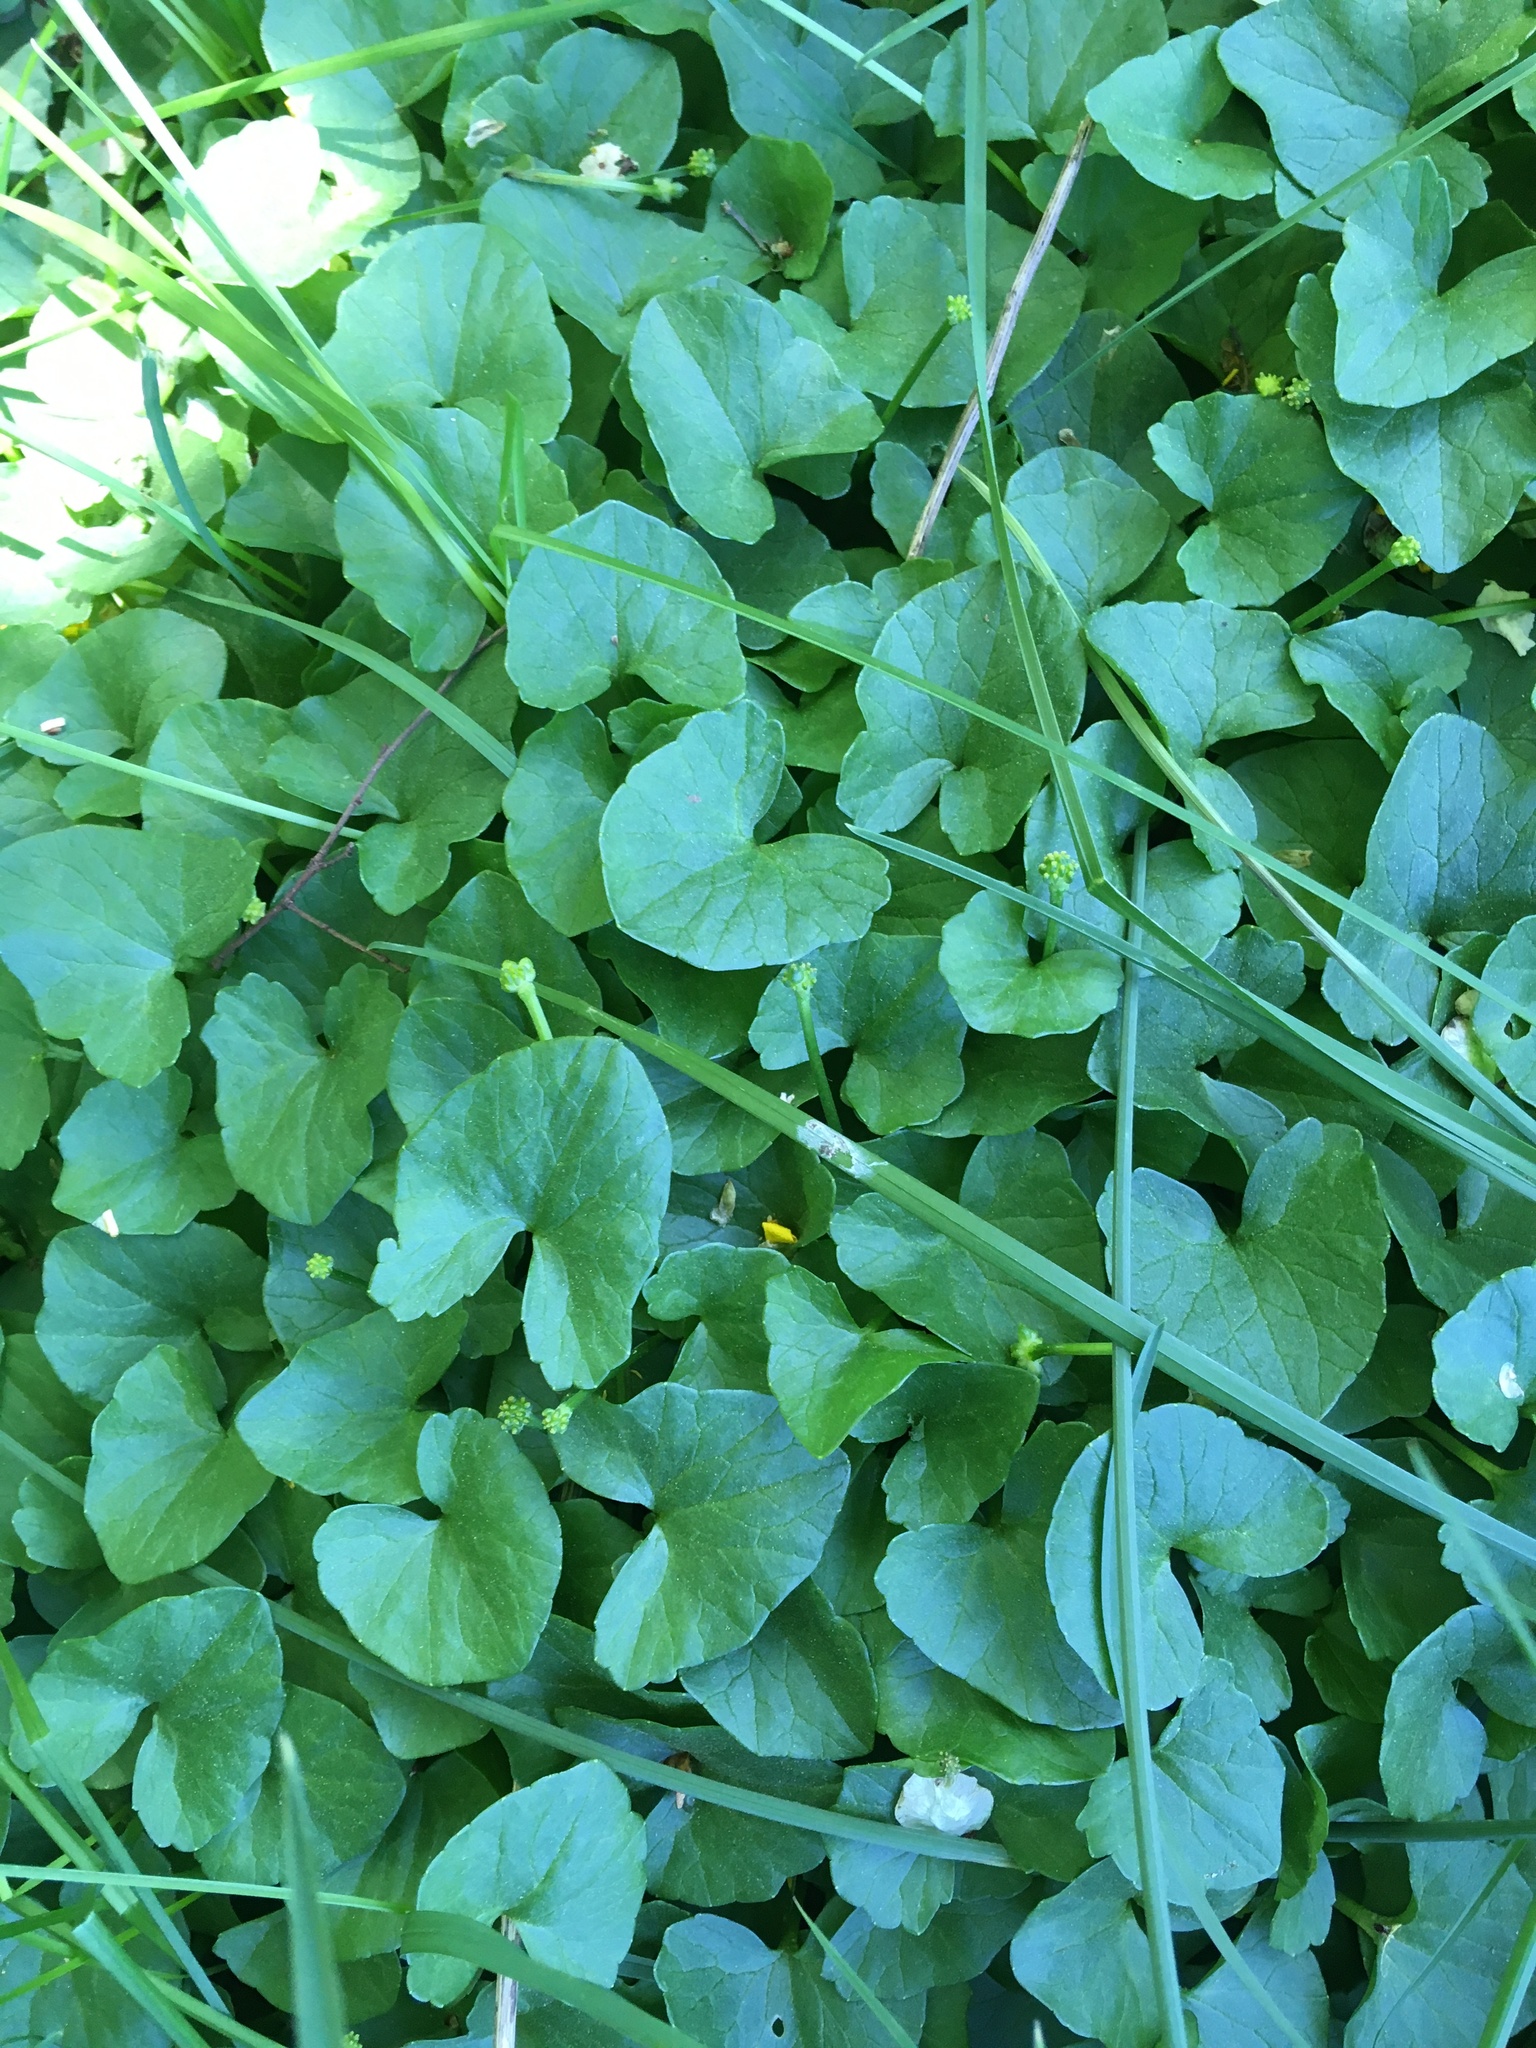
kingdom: Plantae
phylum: Tracheophyta
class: Magnoliopsida
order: Ranunculales
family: Ranunculaceae
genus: Ficaria
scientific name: Ficaria verna
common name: Lesser celandine
